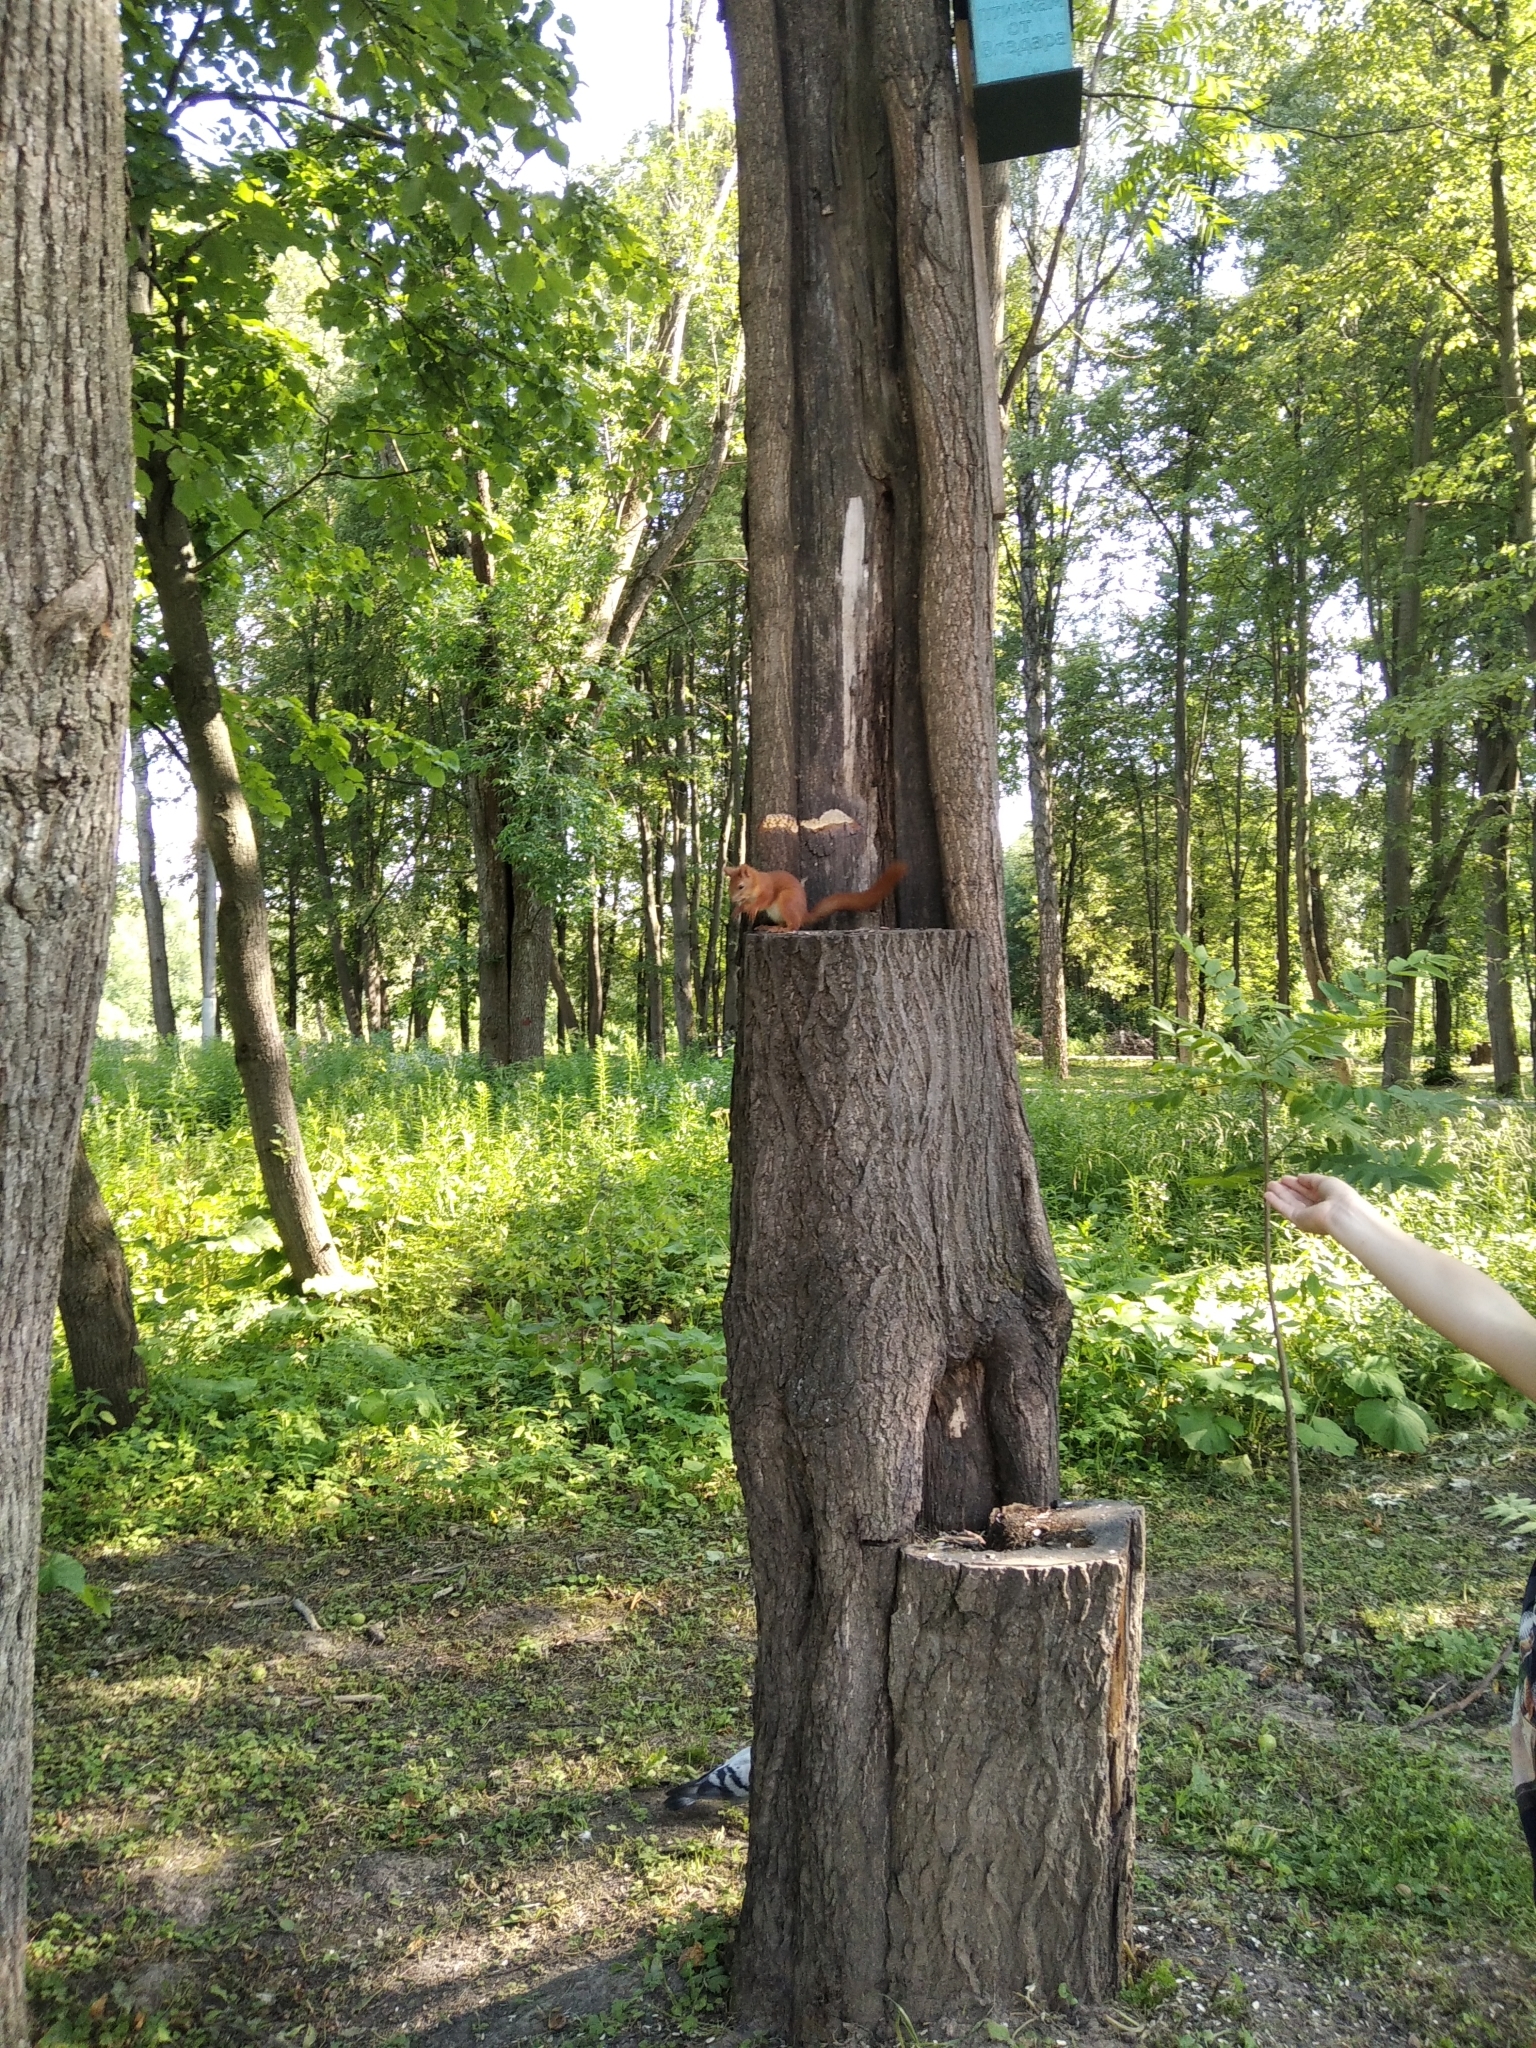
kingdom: Animalia
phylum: Chordata
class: Mammalia
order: Rodentia
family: Sciuridae
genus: Sciurus
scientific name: Sciurus vulgaris
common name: Eurasian red squirrel
